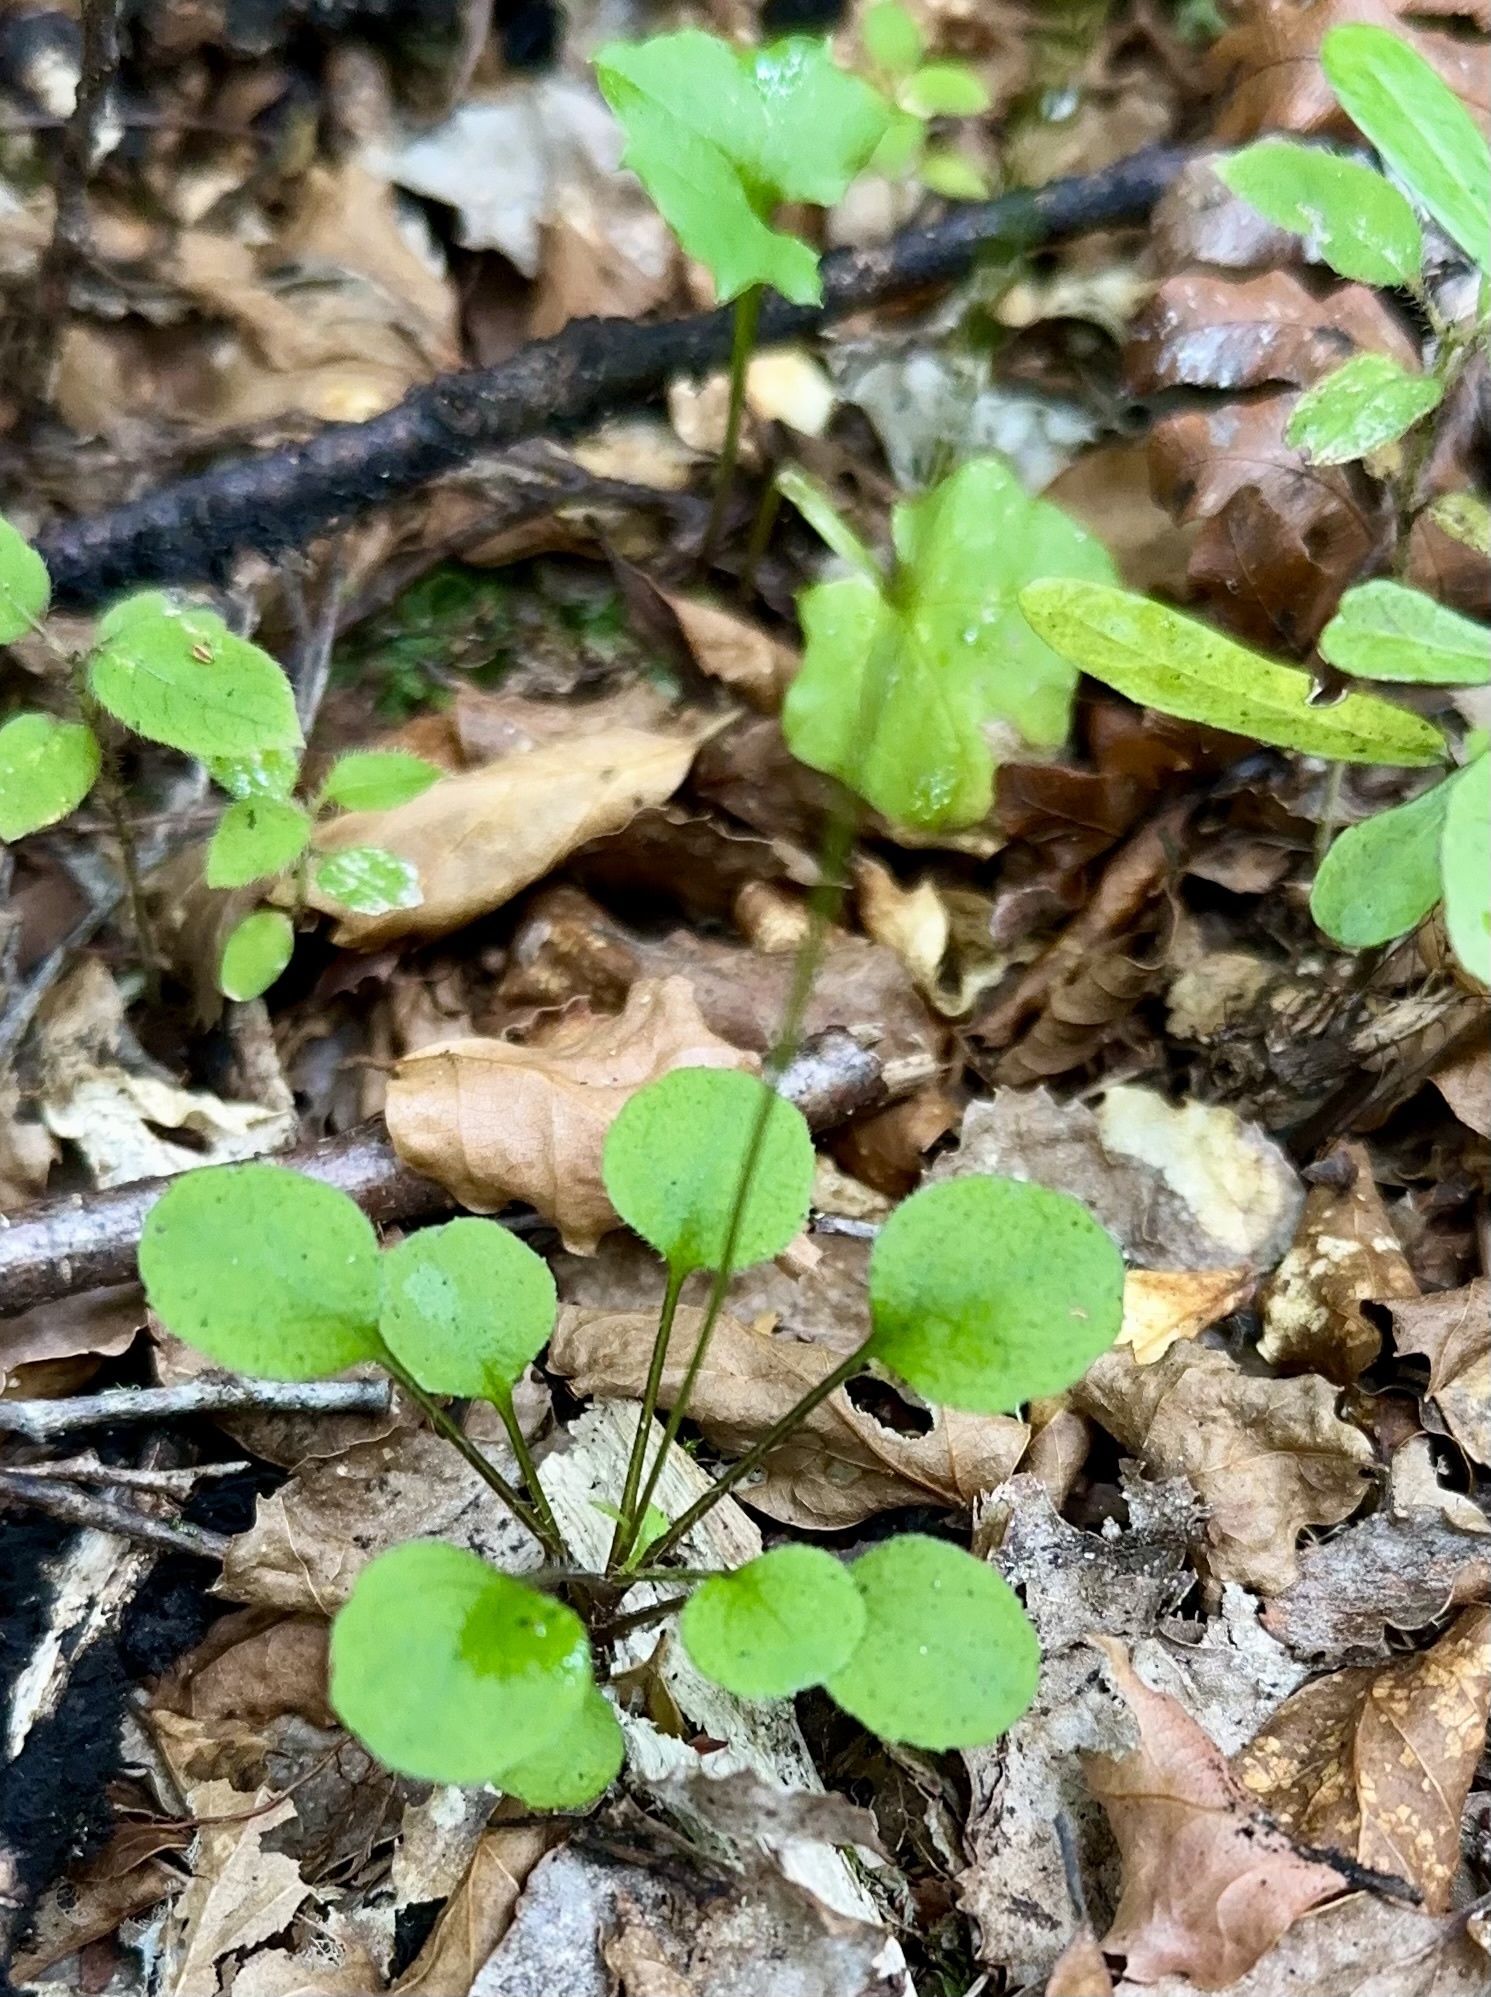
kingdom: Plantae
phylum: Tracheophyta
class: Magnoliopsida
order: Asterales
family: Asteraceae
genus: Lagenophora
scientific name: Lagenophora strangulata
